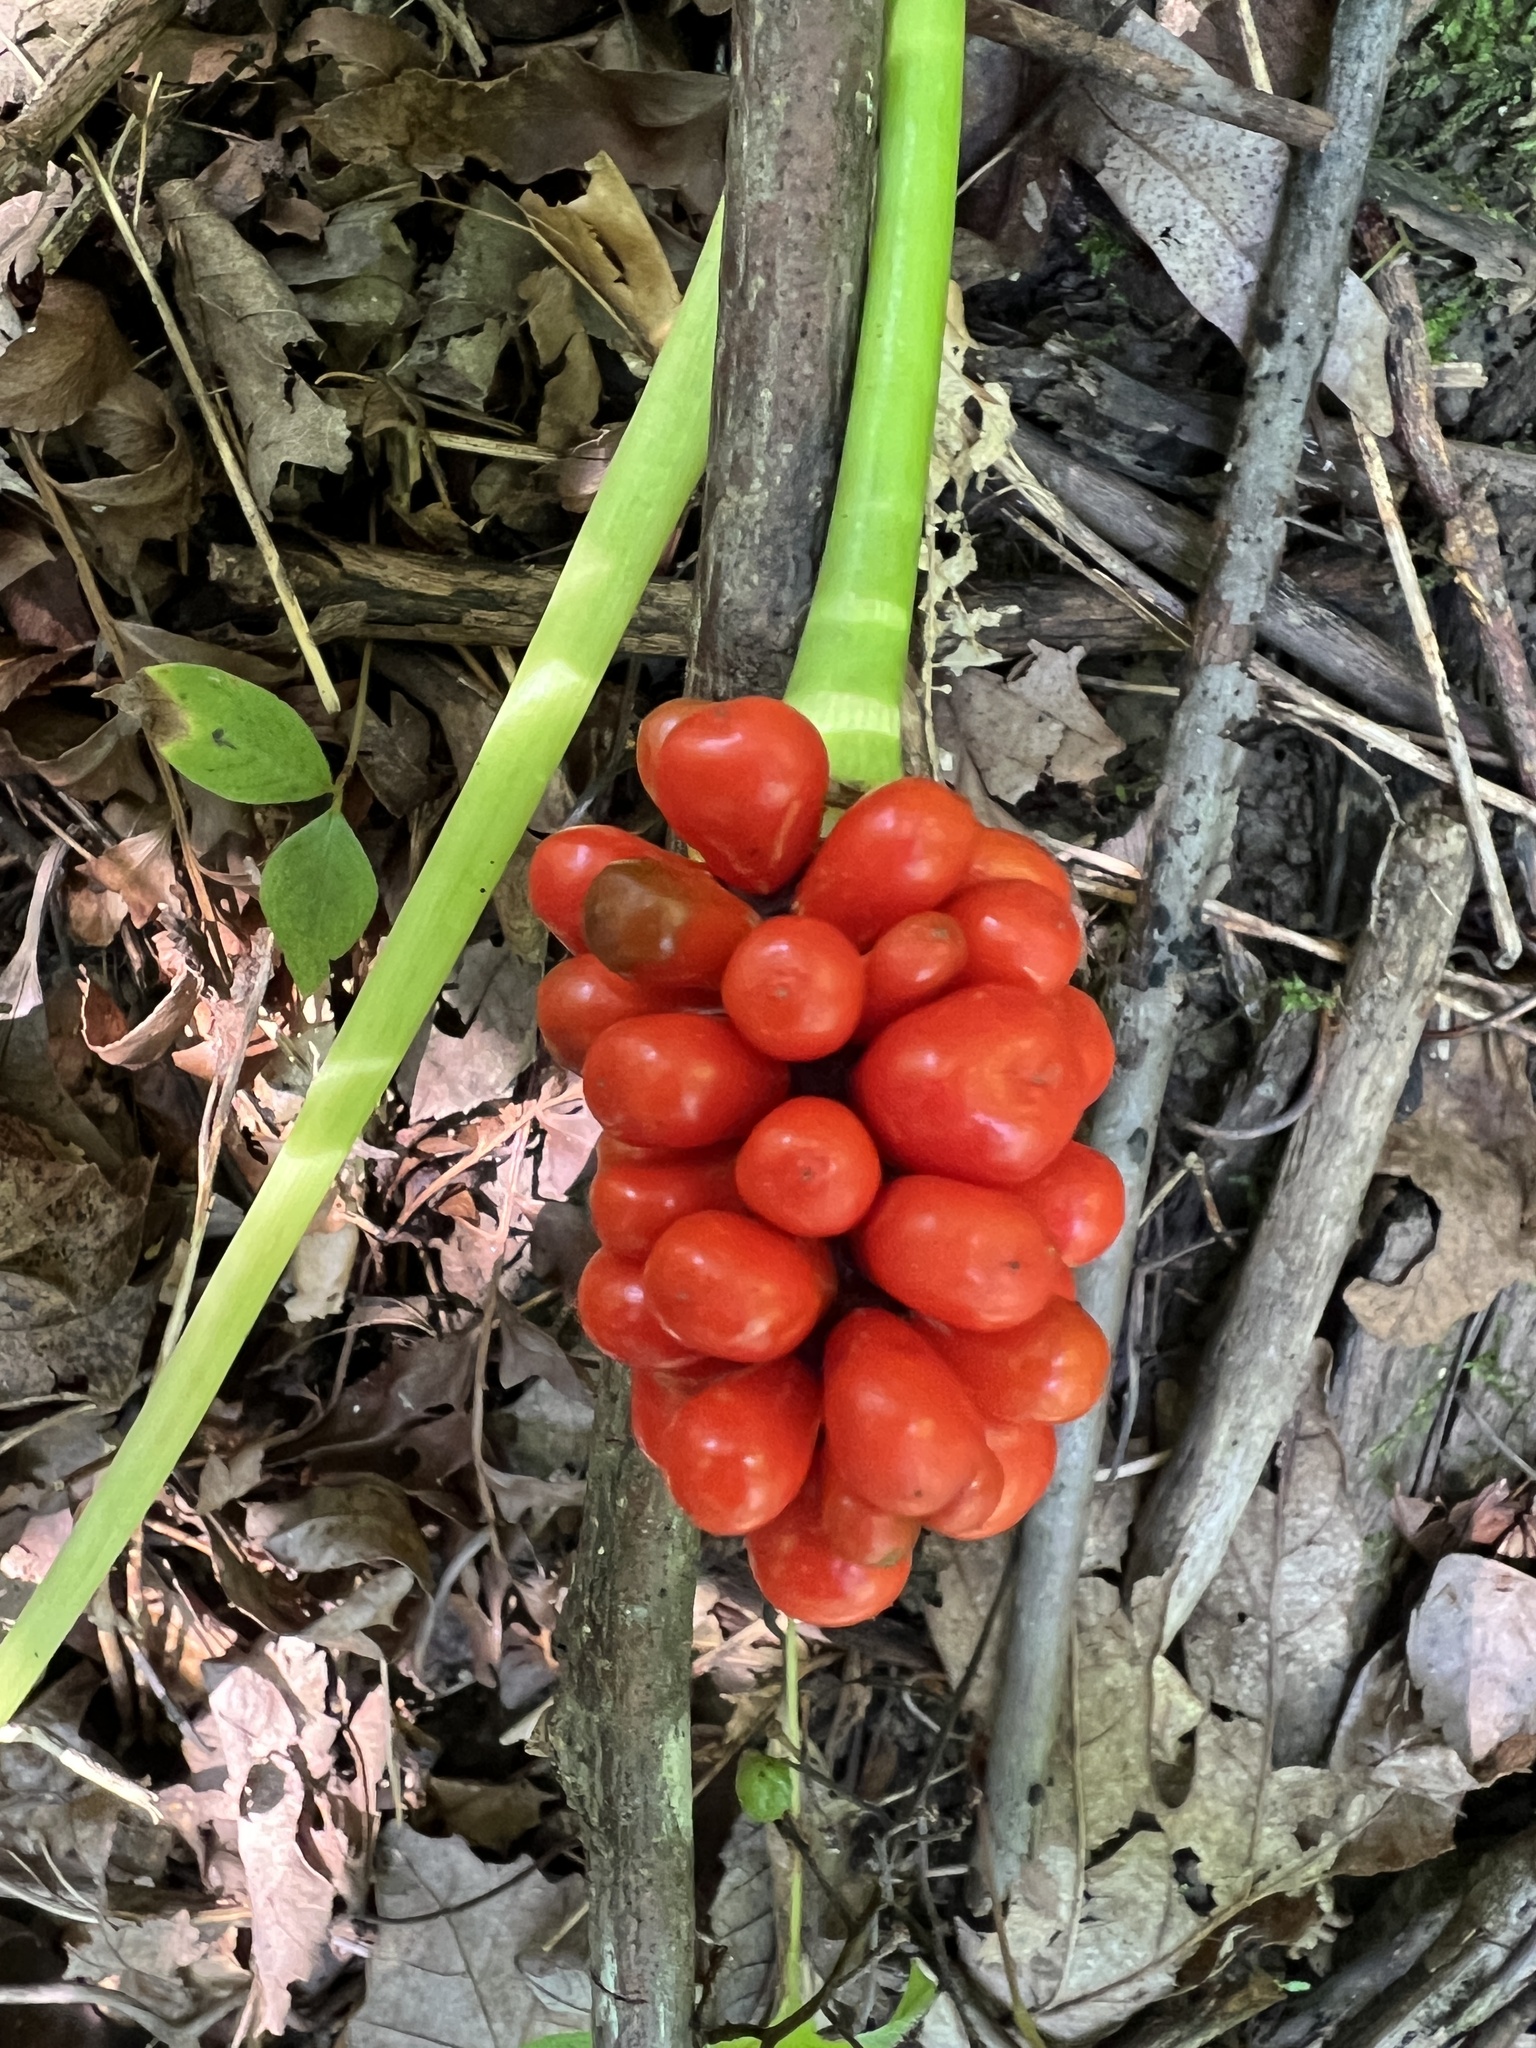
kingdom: Plantae
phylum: Tracheophyta
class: Liliopsida
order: Alismatales
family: Araceae
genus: Arisaema
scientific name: Arisaema triphyllum
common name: Jack-in-the-pulpit
